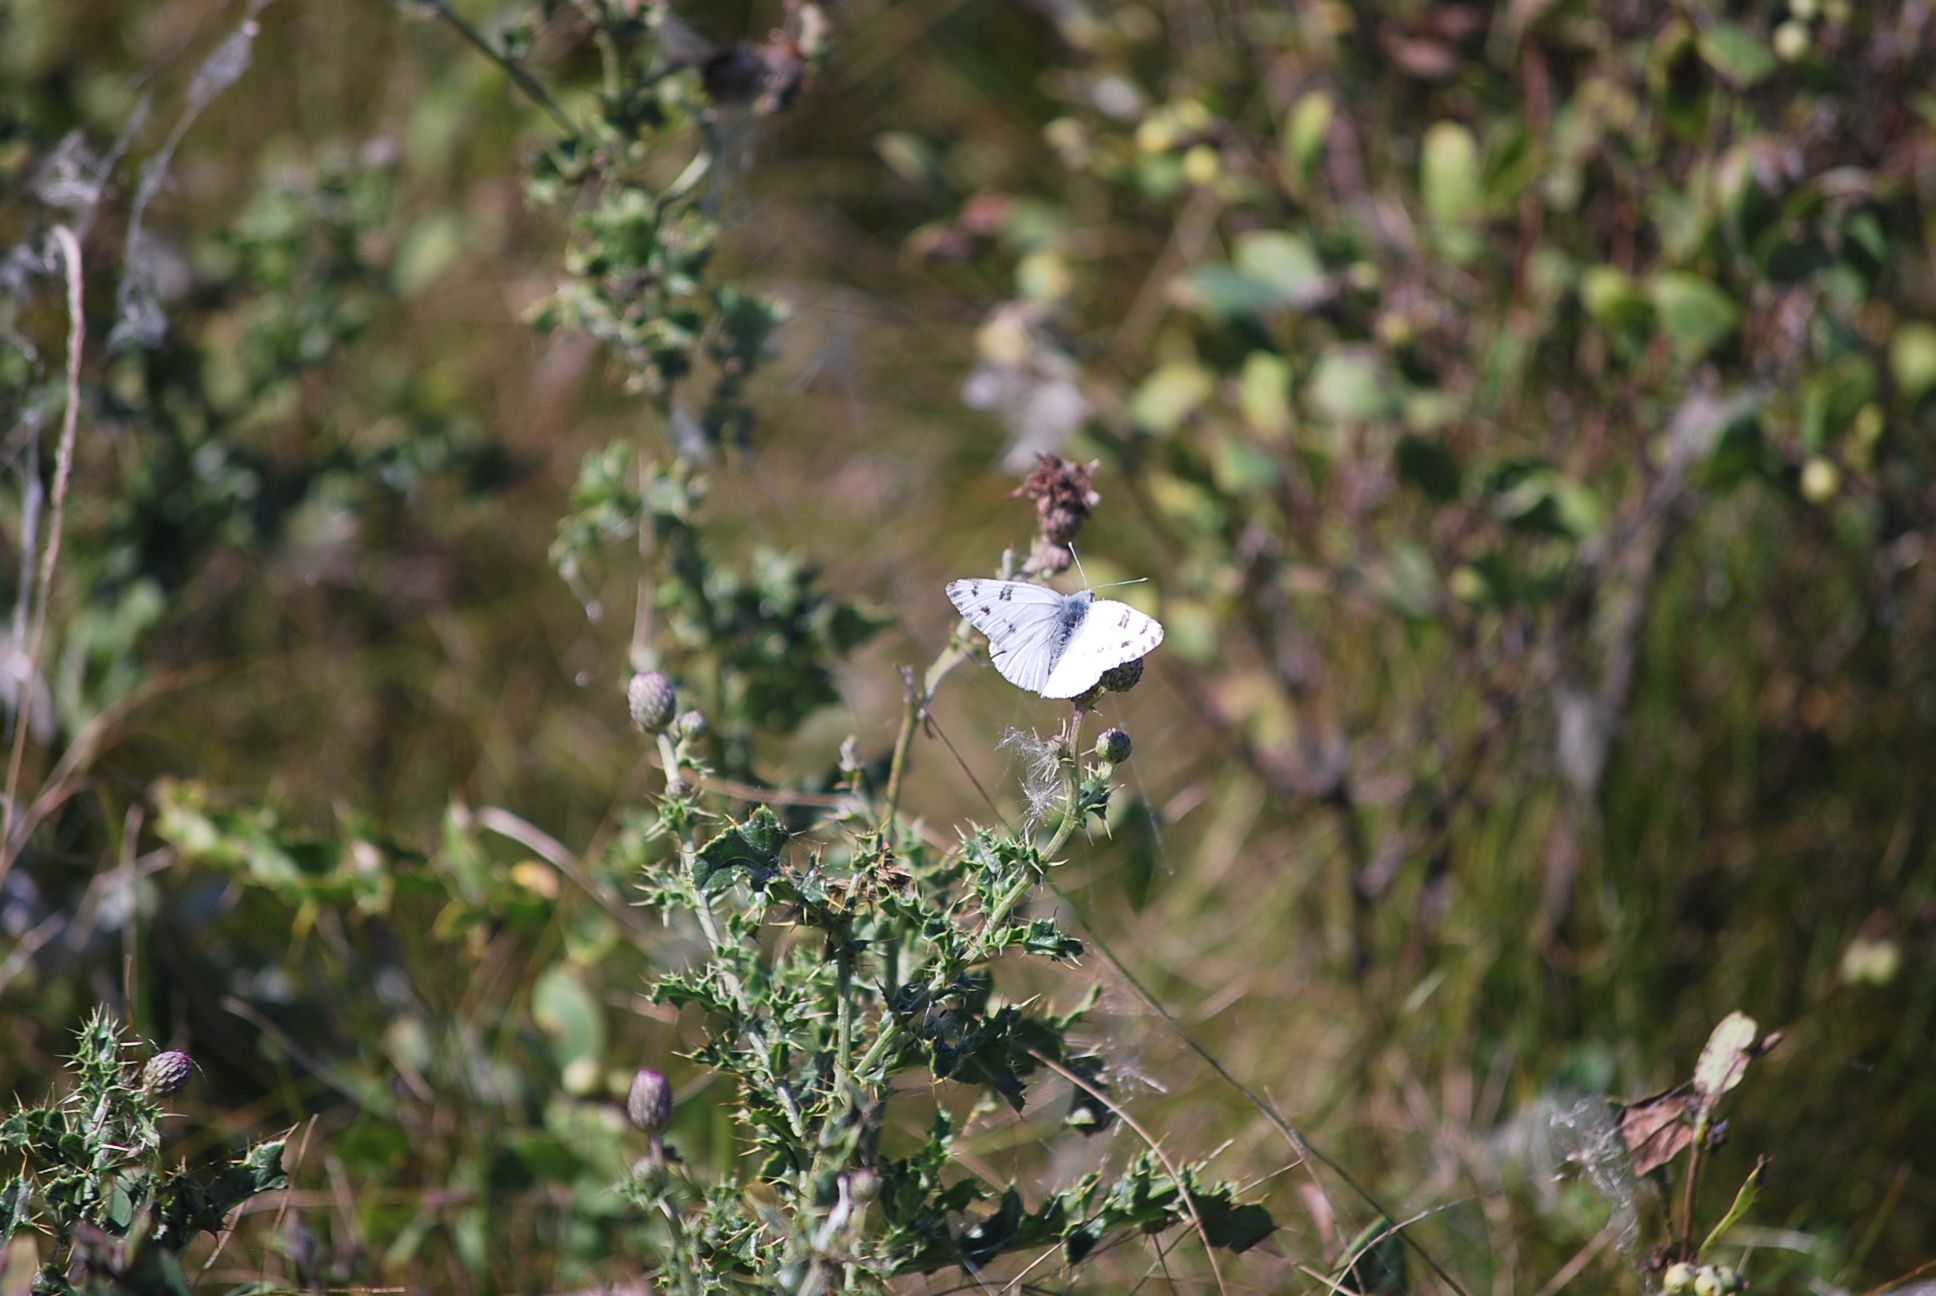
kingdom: Animalia
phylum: Arthropoda
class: Insecta
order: Lepidoptera
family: Pieridae
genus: Pontia
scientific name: Pontia occidentalis
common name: Western white
